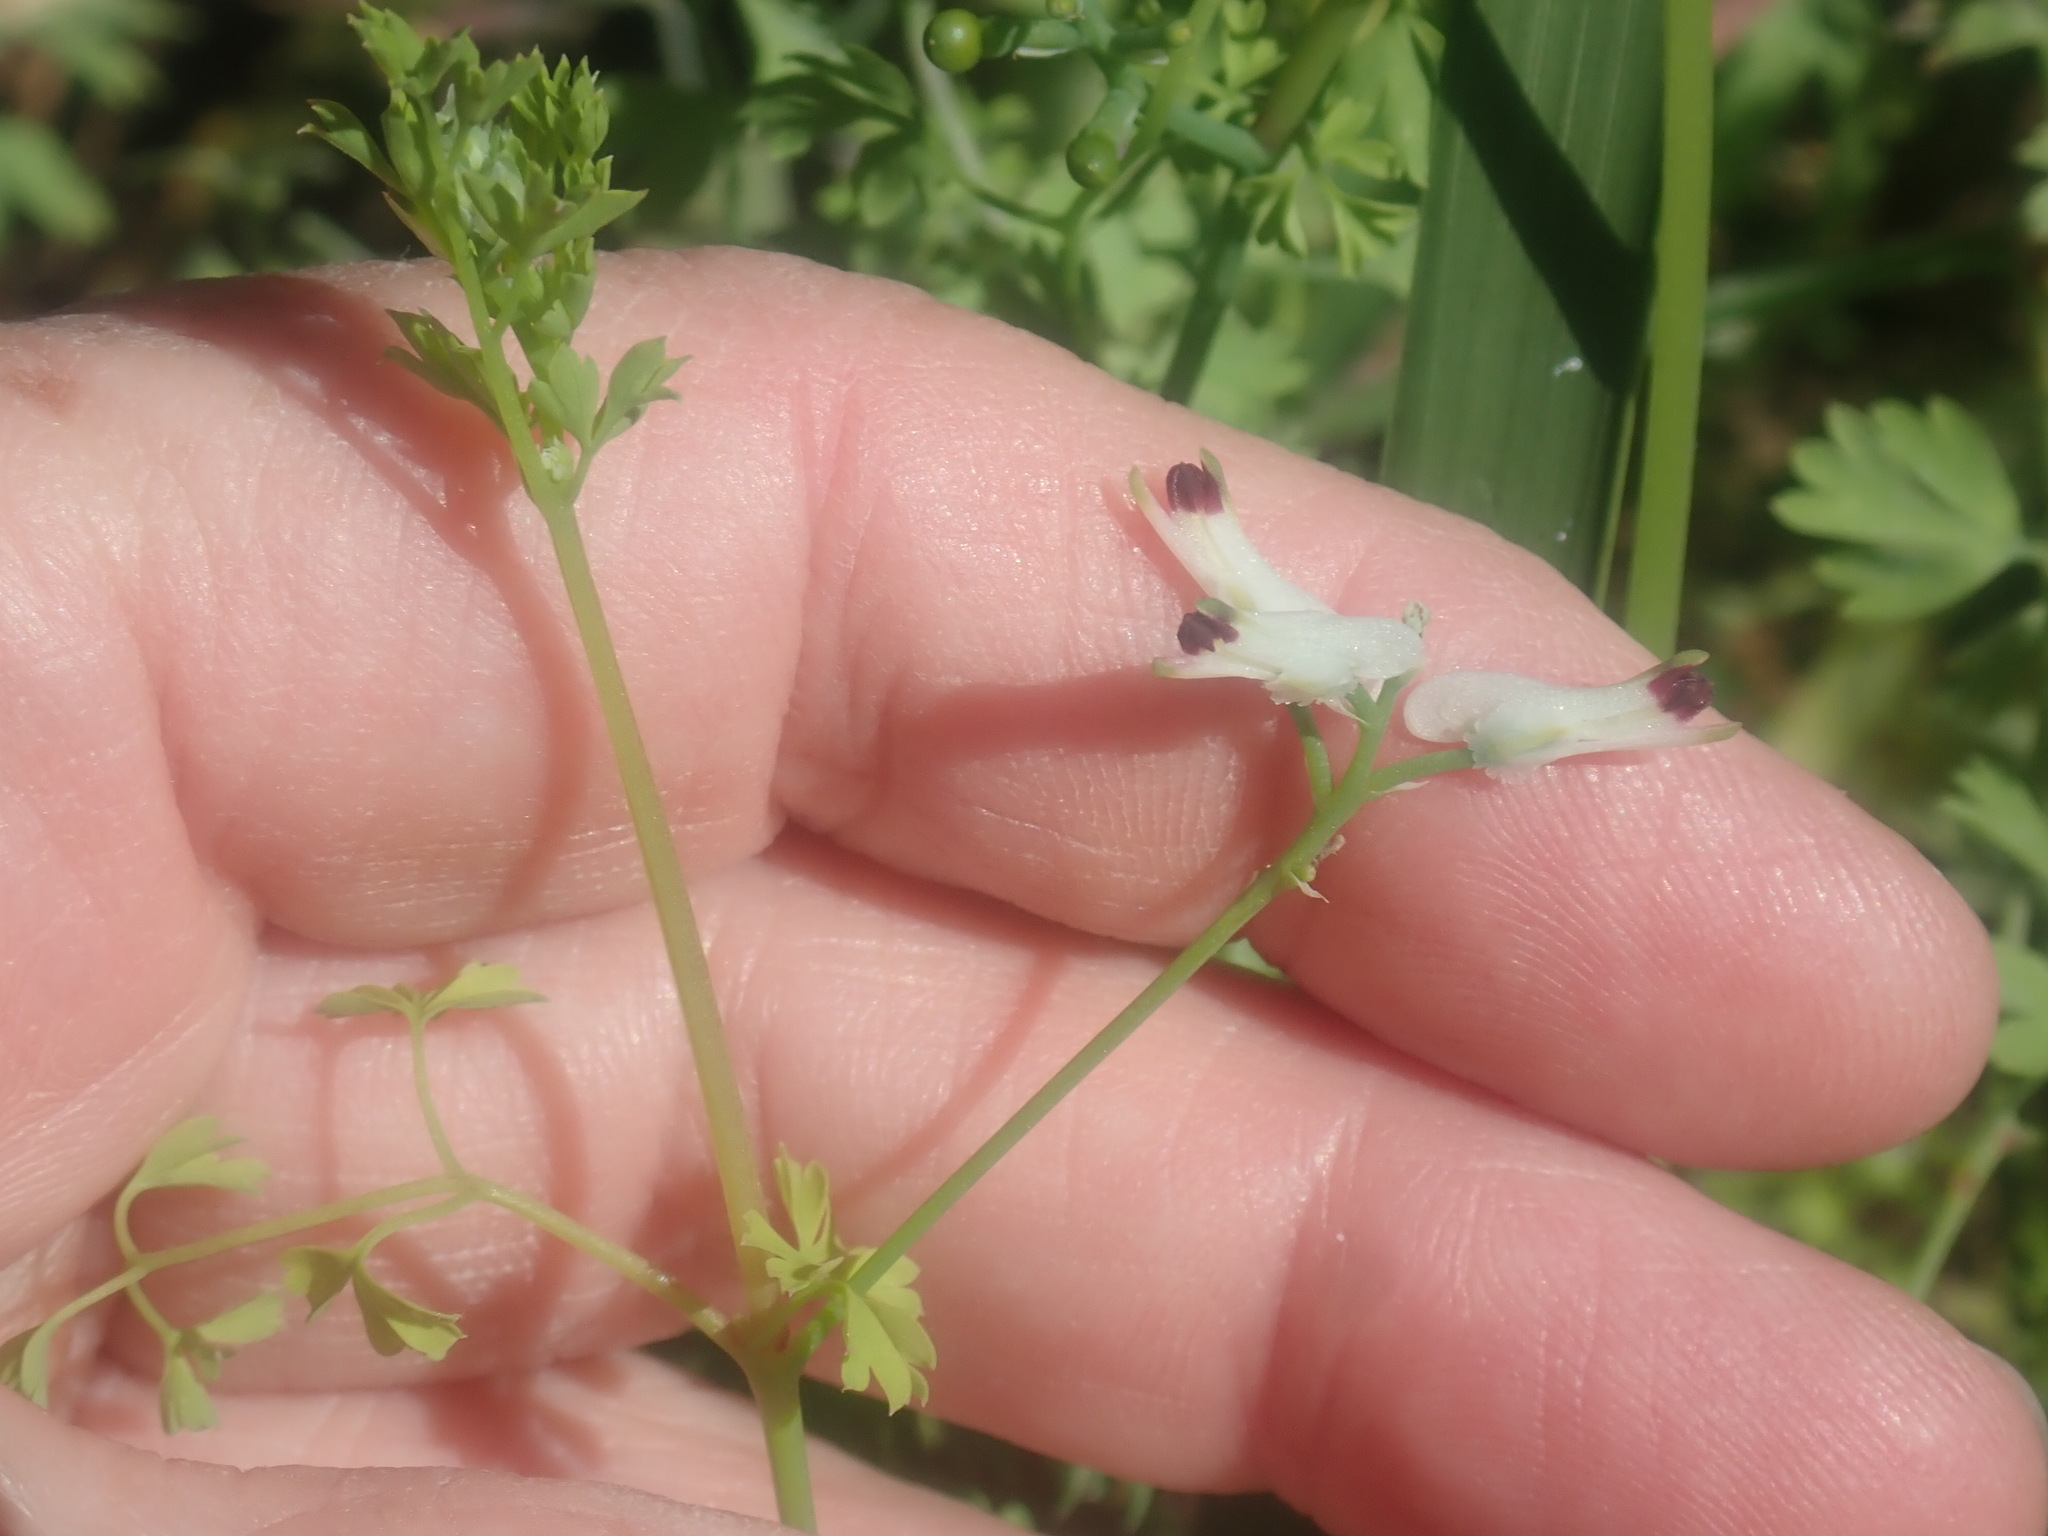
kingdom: Plantae
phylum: Tracheophyta
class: Magnoliopsida
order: Ranunculales
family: Papaveraceae
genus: Fumaria
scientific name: Fumaria capreolata
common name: White ramping-fumitory
